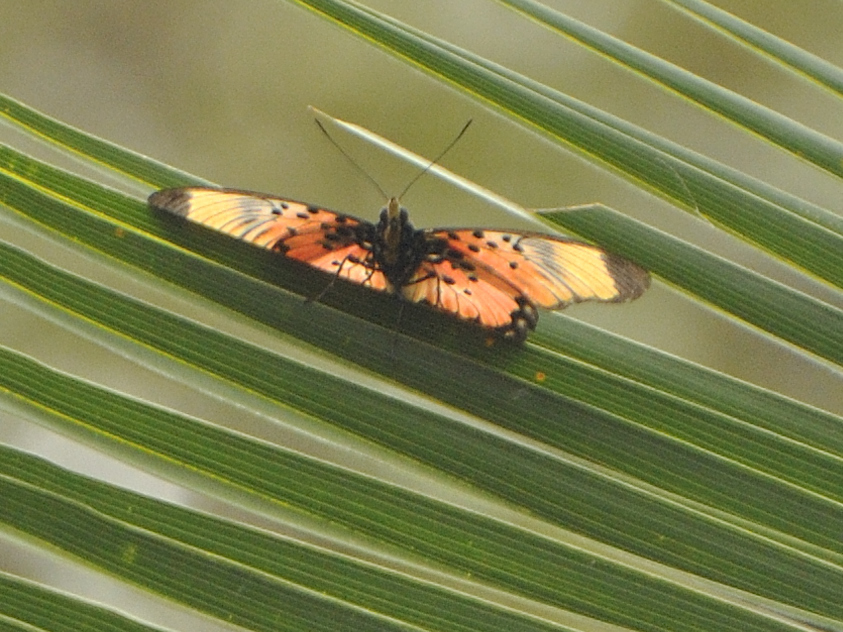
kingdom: Animalia
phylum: Arthropoda
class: Insecta
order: Lepidoptera
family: Nymphalidae
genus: Chloropoea
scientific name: Chloropoea boisduvalii
